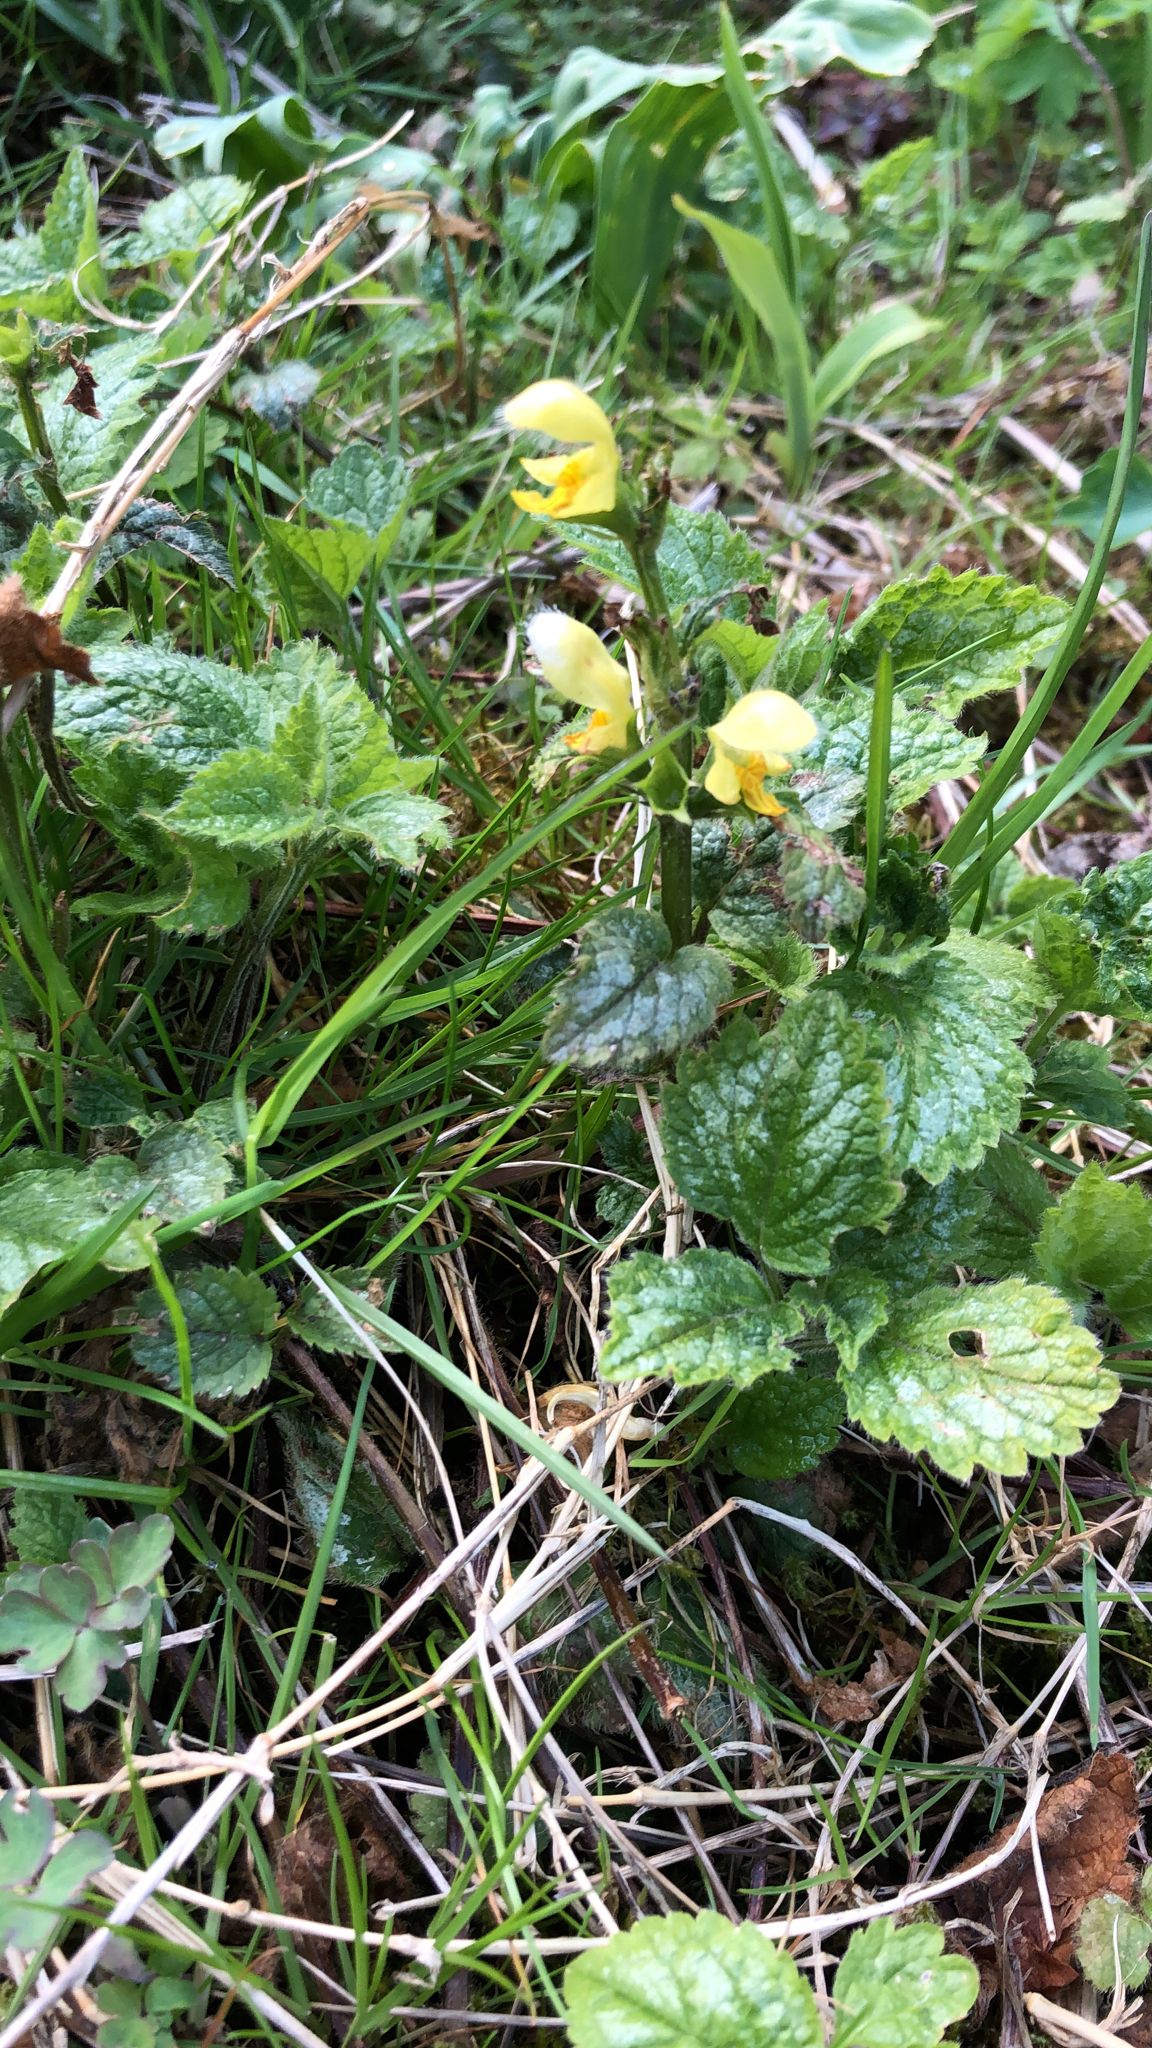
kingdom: Plantae
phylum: Tracheophyta
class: Magnoliopsida
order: Lamiales
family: Lamiaceae
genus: Lamium
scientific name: Lamium galeobdolon
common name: Yellow archangel
